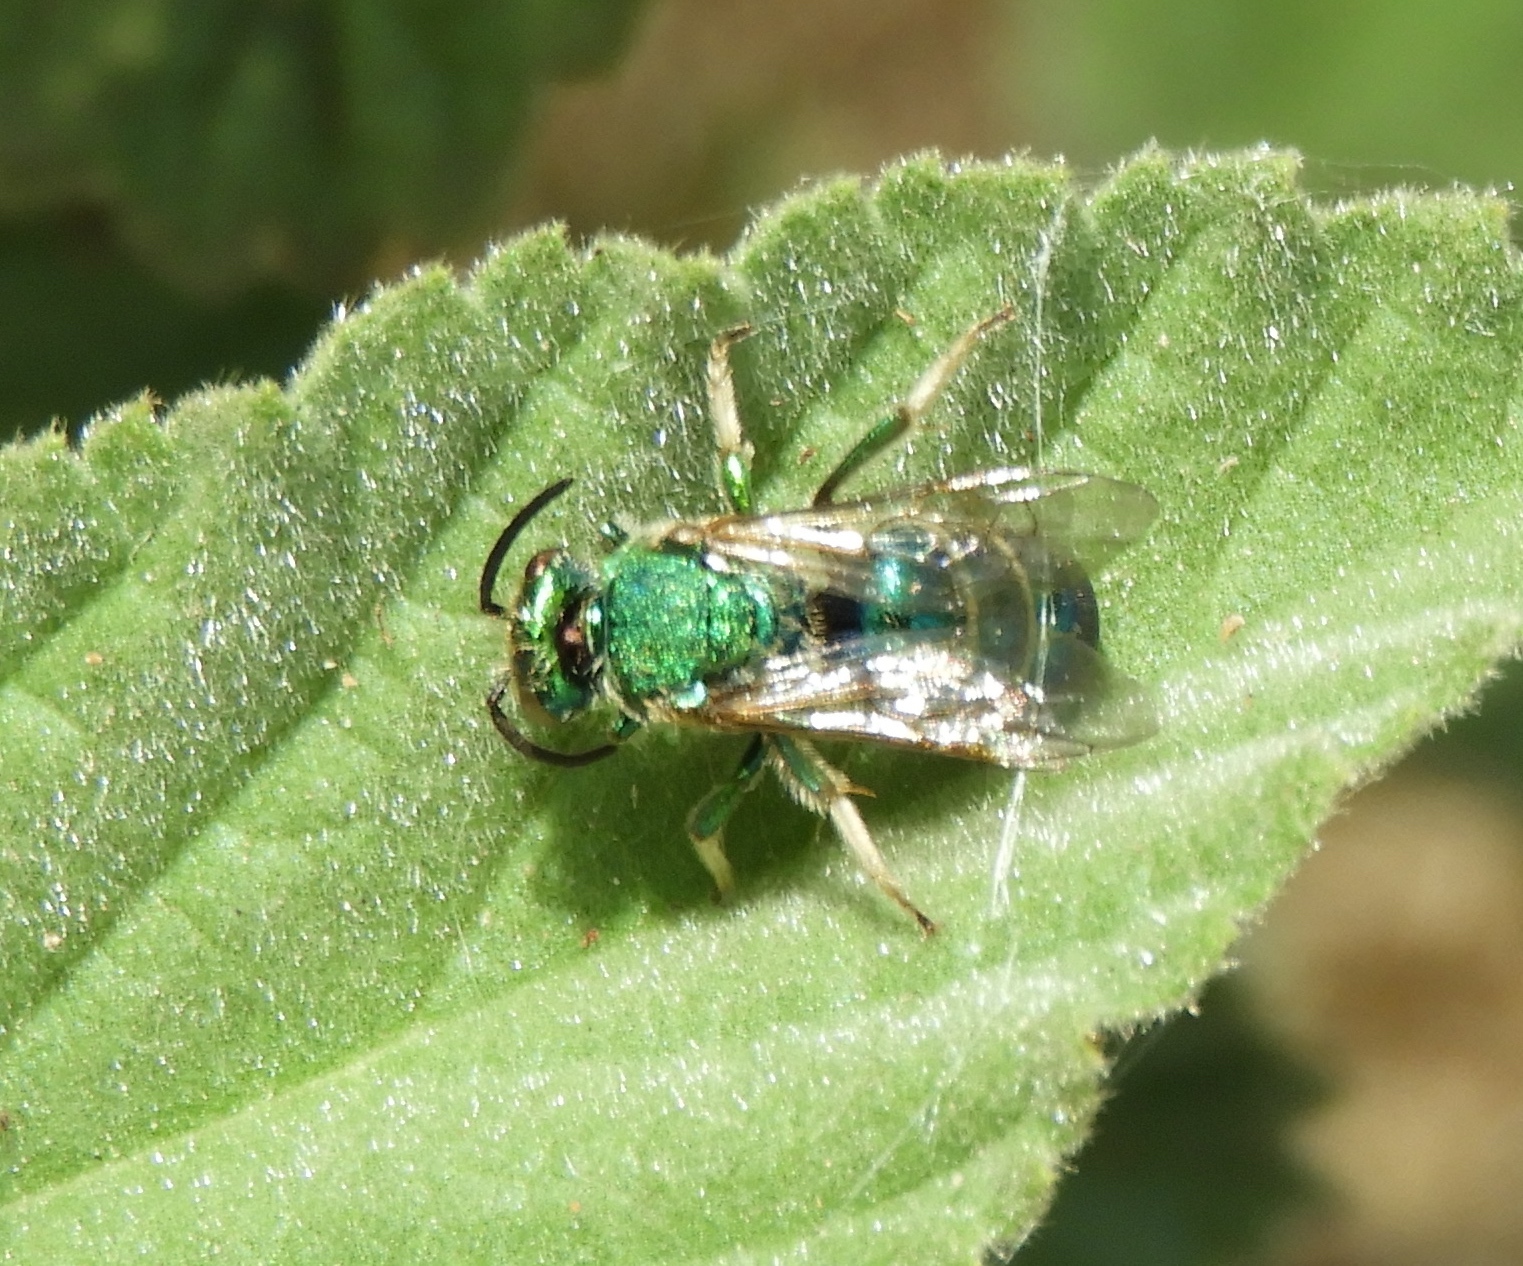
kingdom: Animalia
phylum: Arthropoda
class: Insecta
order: Hymenoptera
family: Halictidae
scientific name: Halictidae
